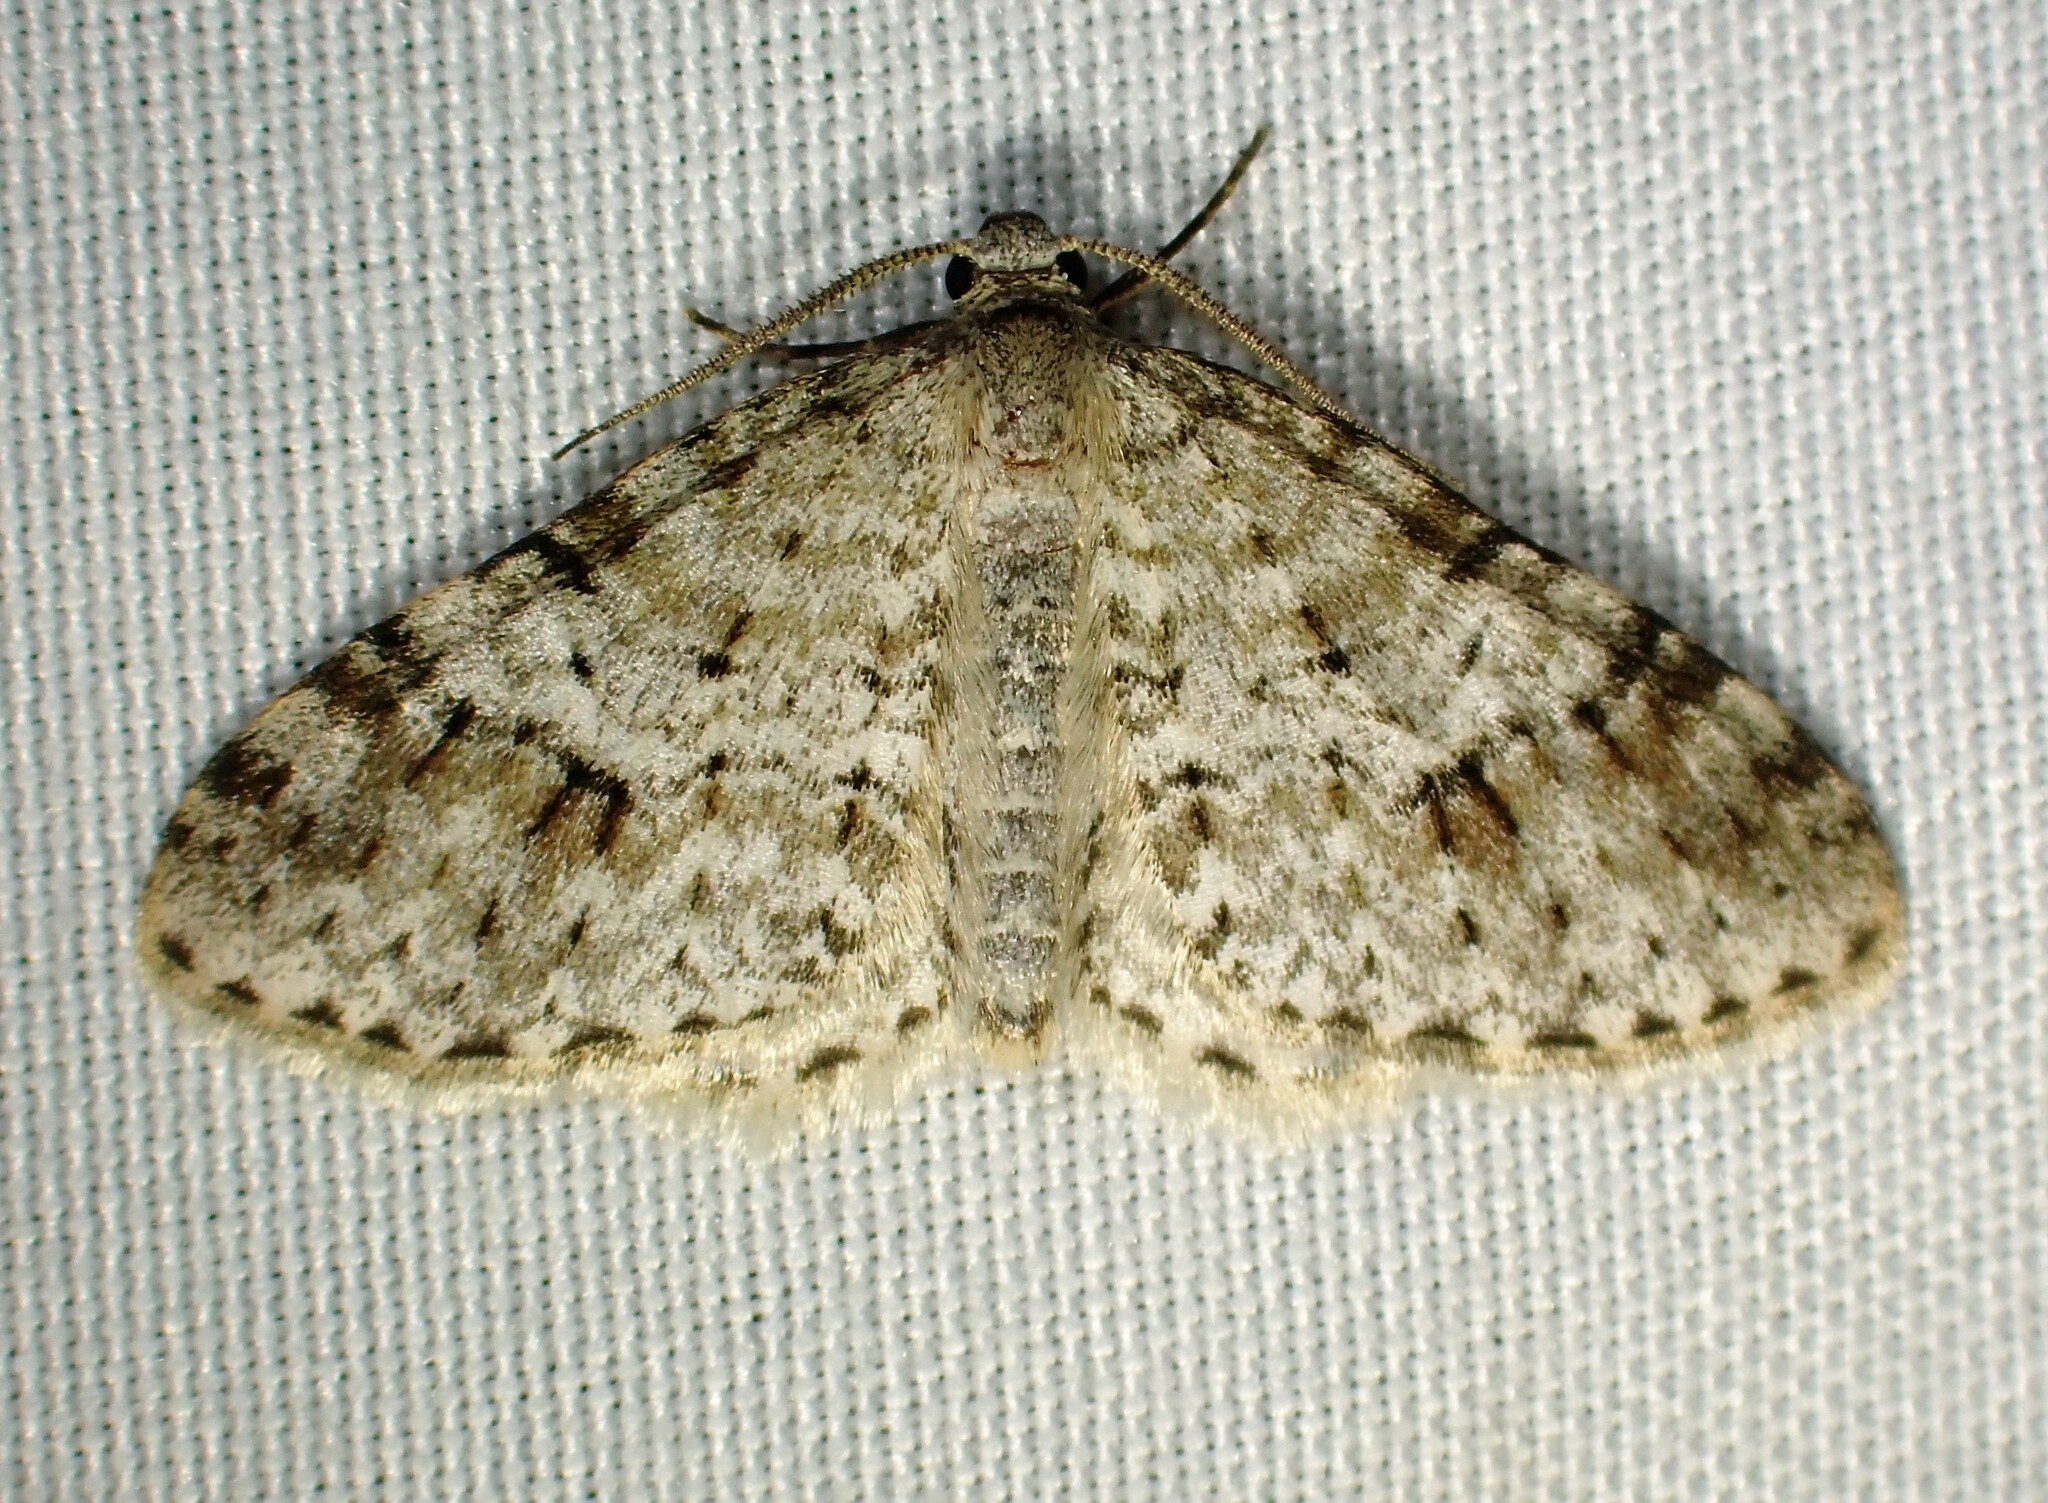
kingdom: Animalia
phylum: Arthropoda
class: Insecta
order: Lepidoptera
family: Geometridae
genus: Venusia
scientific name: Venusia cambrica
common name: Welsh wave
